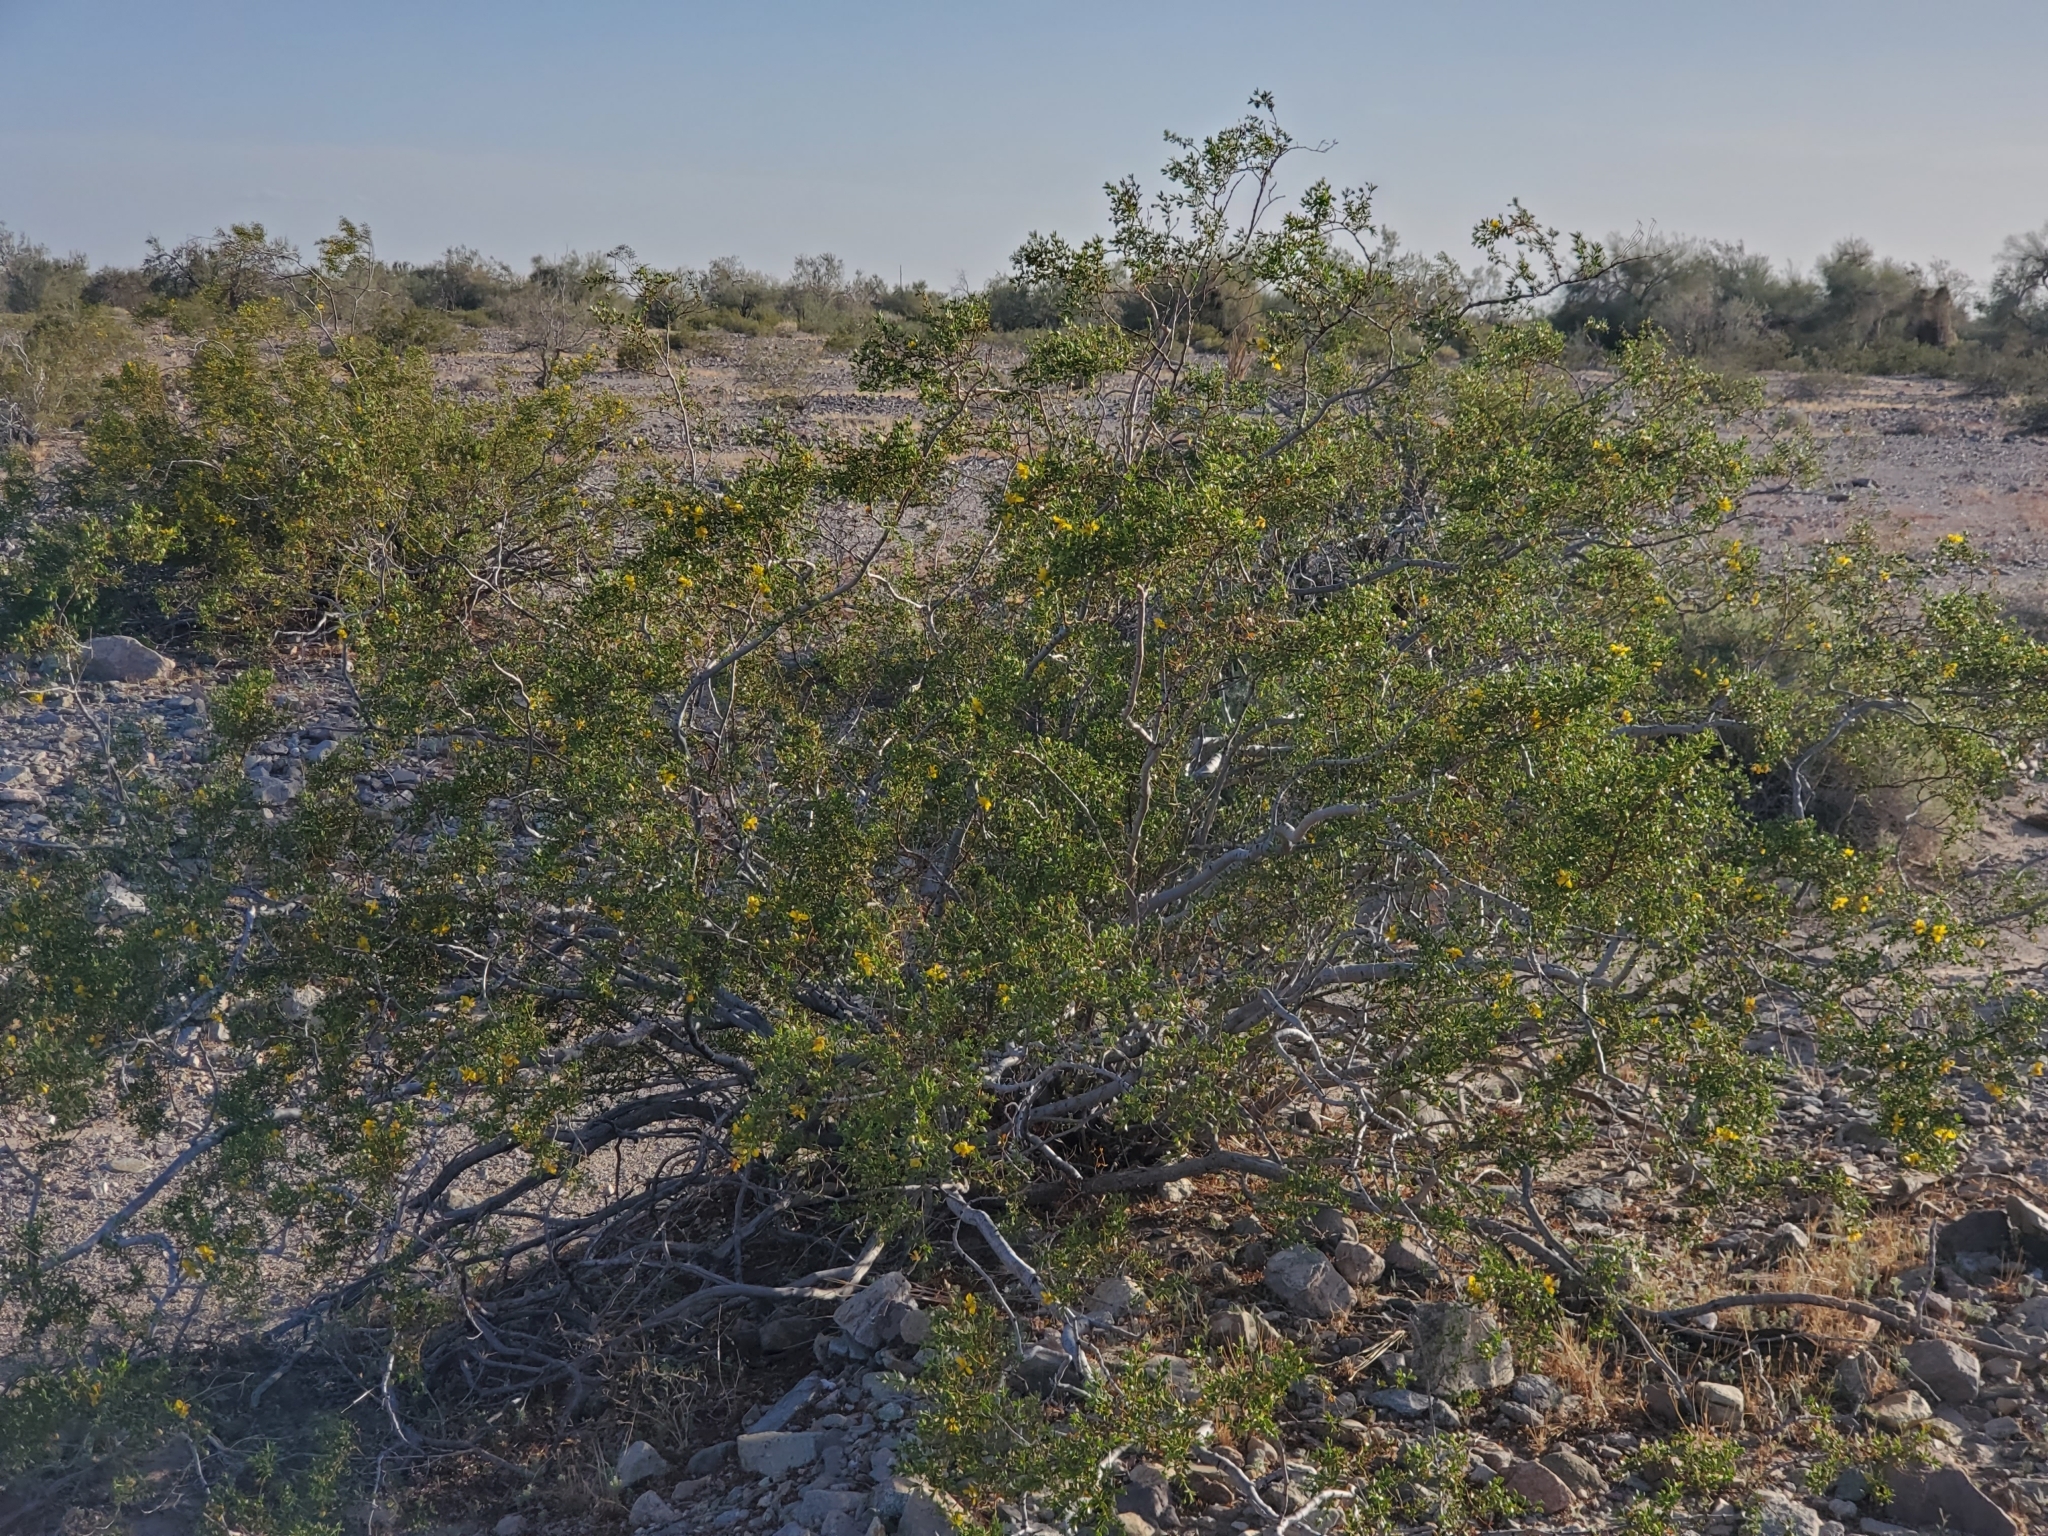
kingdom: Plantae
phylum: Tracheophyta
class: Magnoliopsida
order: Zygophyllales
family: Zygophyllaceae
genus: Larrea
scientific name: Larrea tridentata
